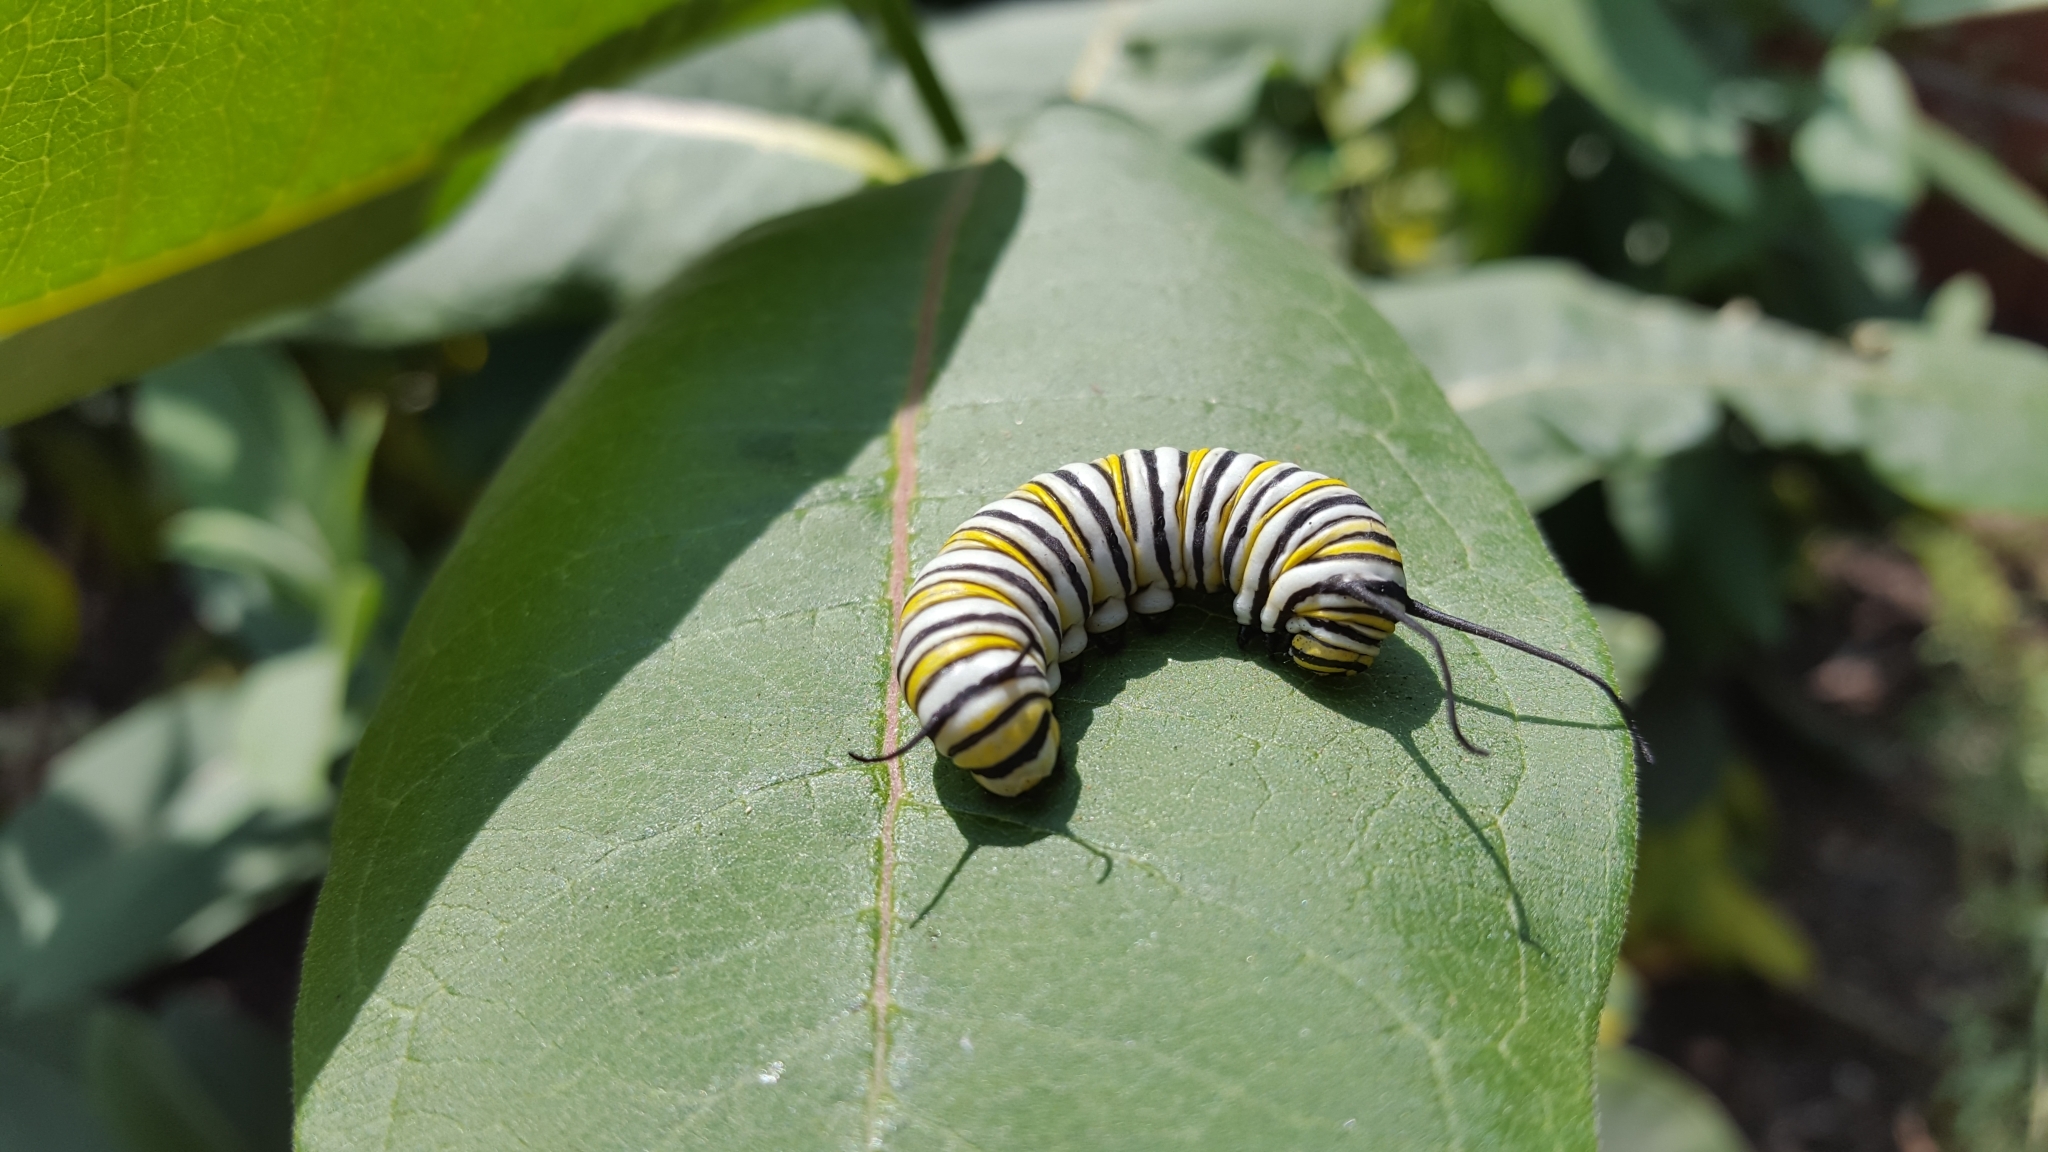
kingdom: Animalia
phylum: Arthropoda
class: Insecta
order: Lepidoptera
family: Nymphalidae
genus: Danaus
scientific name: Danaus plexippus
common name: Monarch
